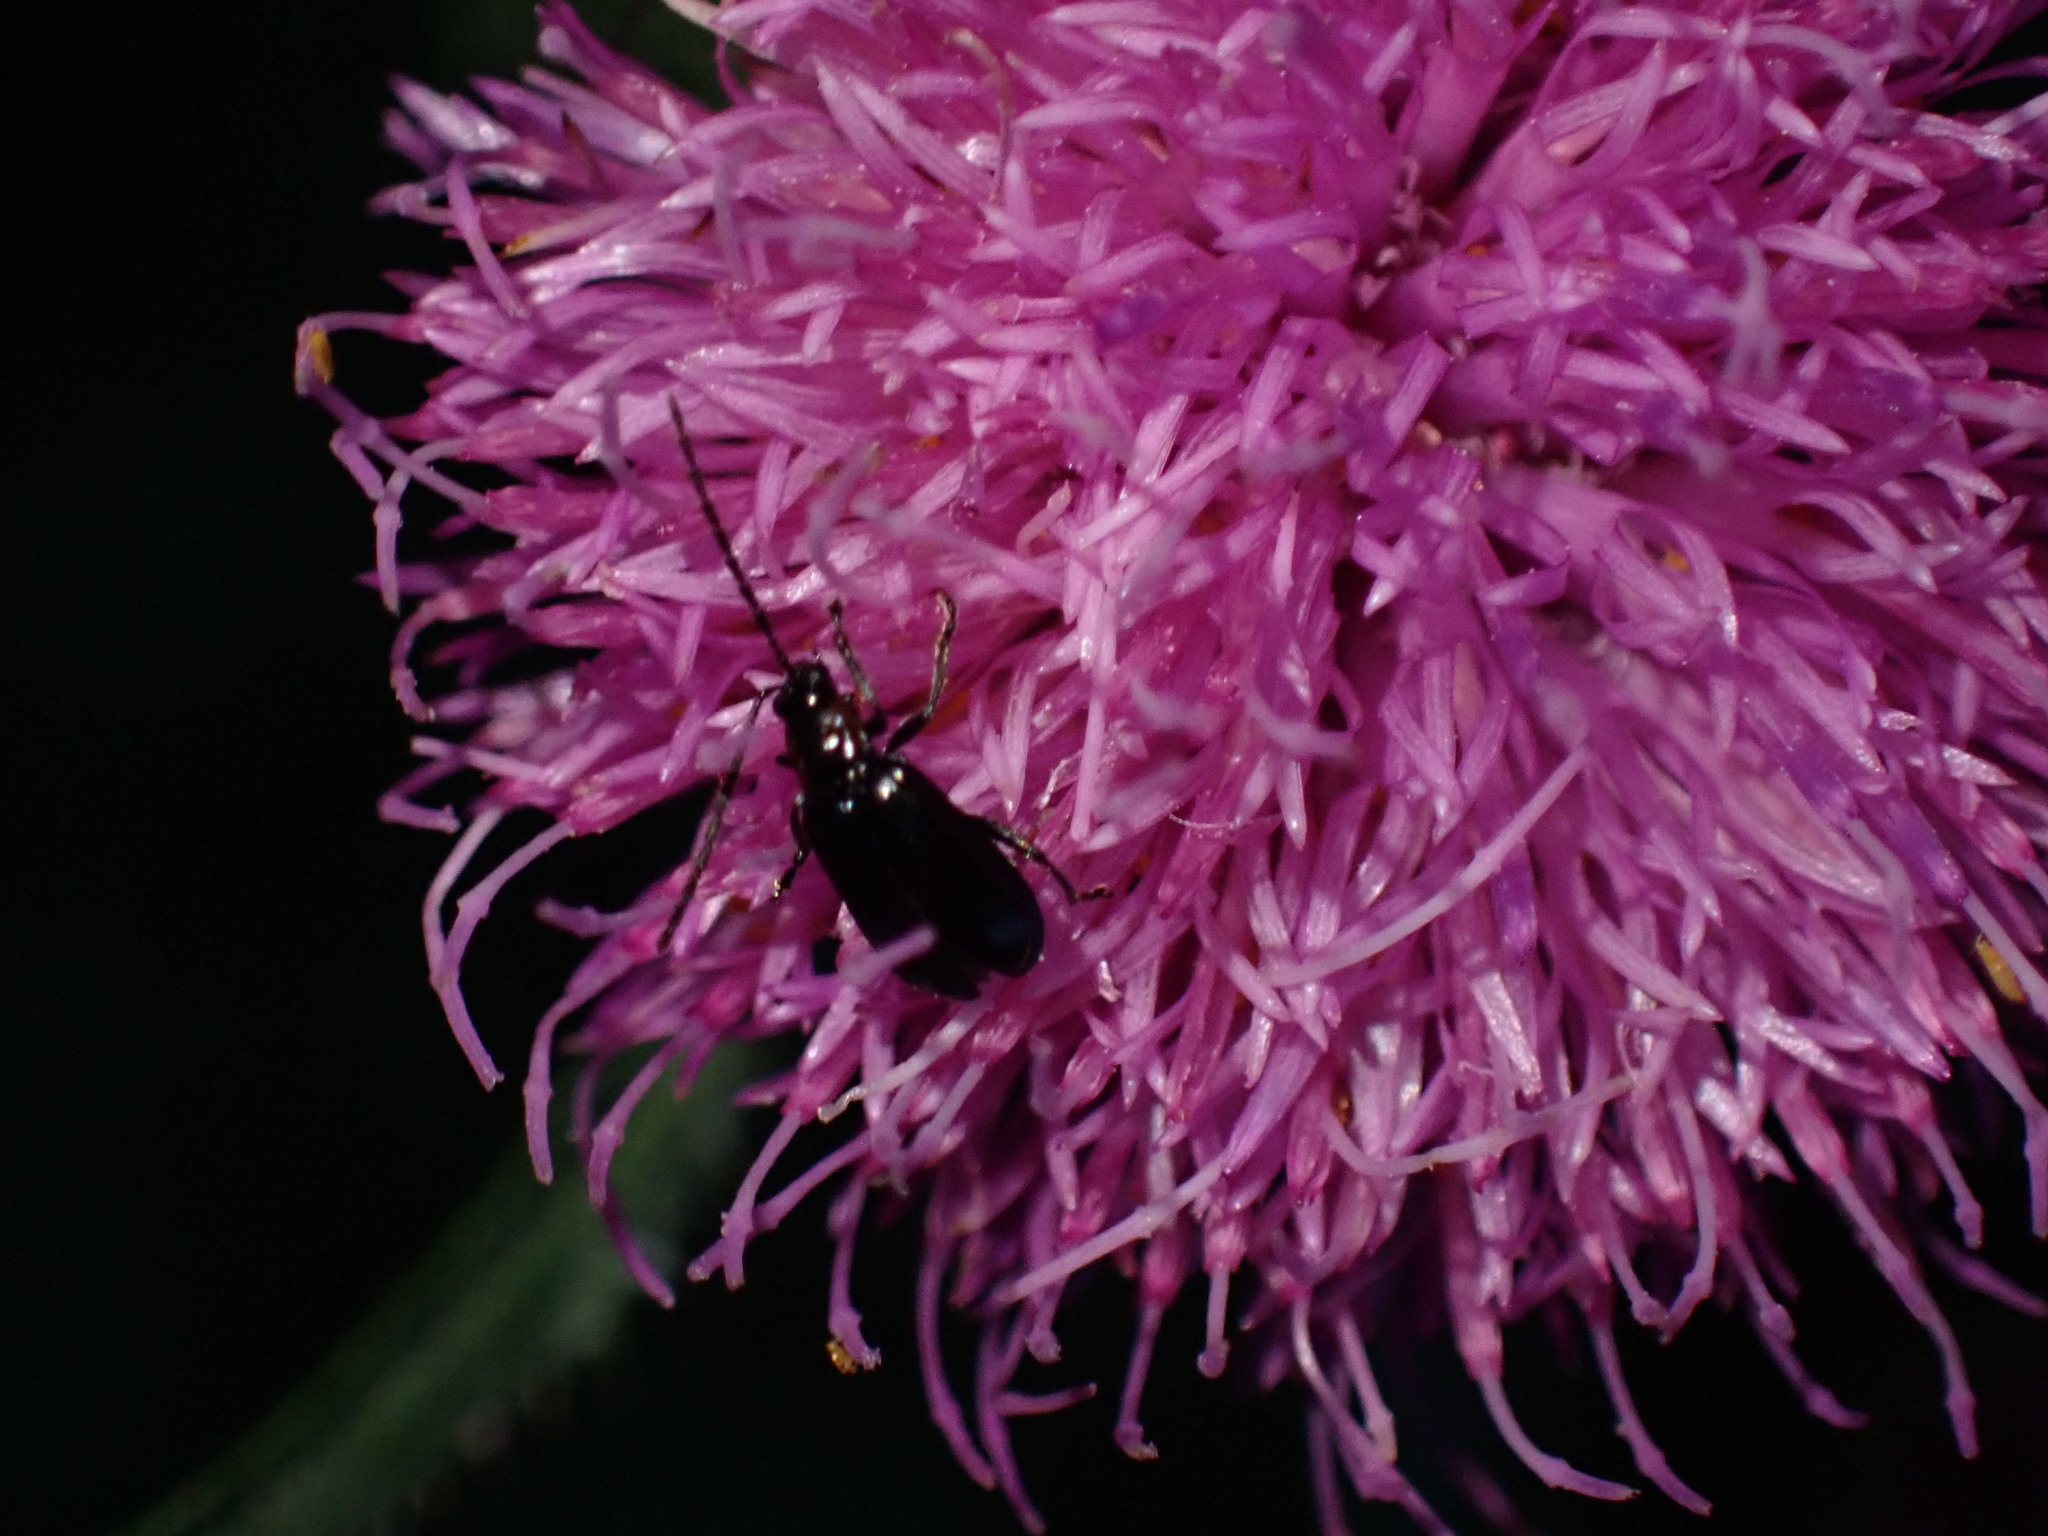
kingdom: Animalia
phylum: Arthropoda
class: Insecta
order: Coleoptera
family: Chrysomelidae
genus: Diabrotica
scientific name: Diabrotica cristata
